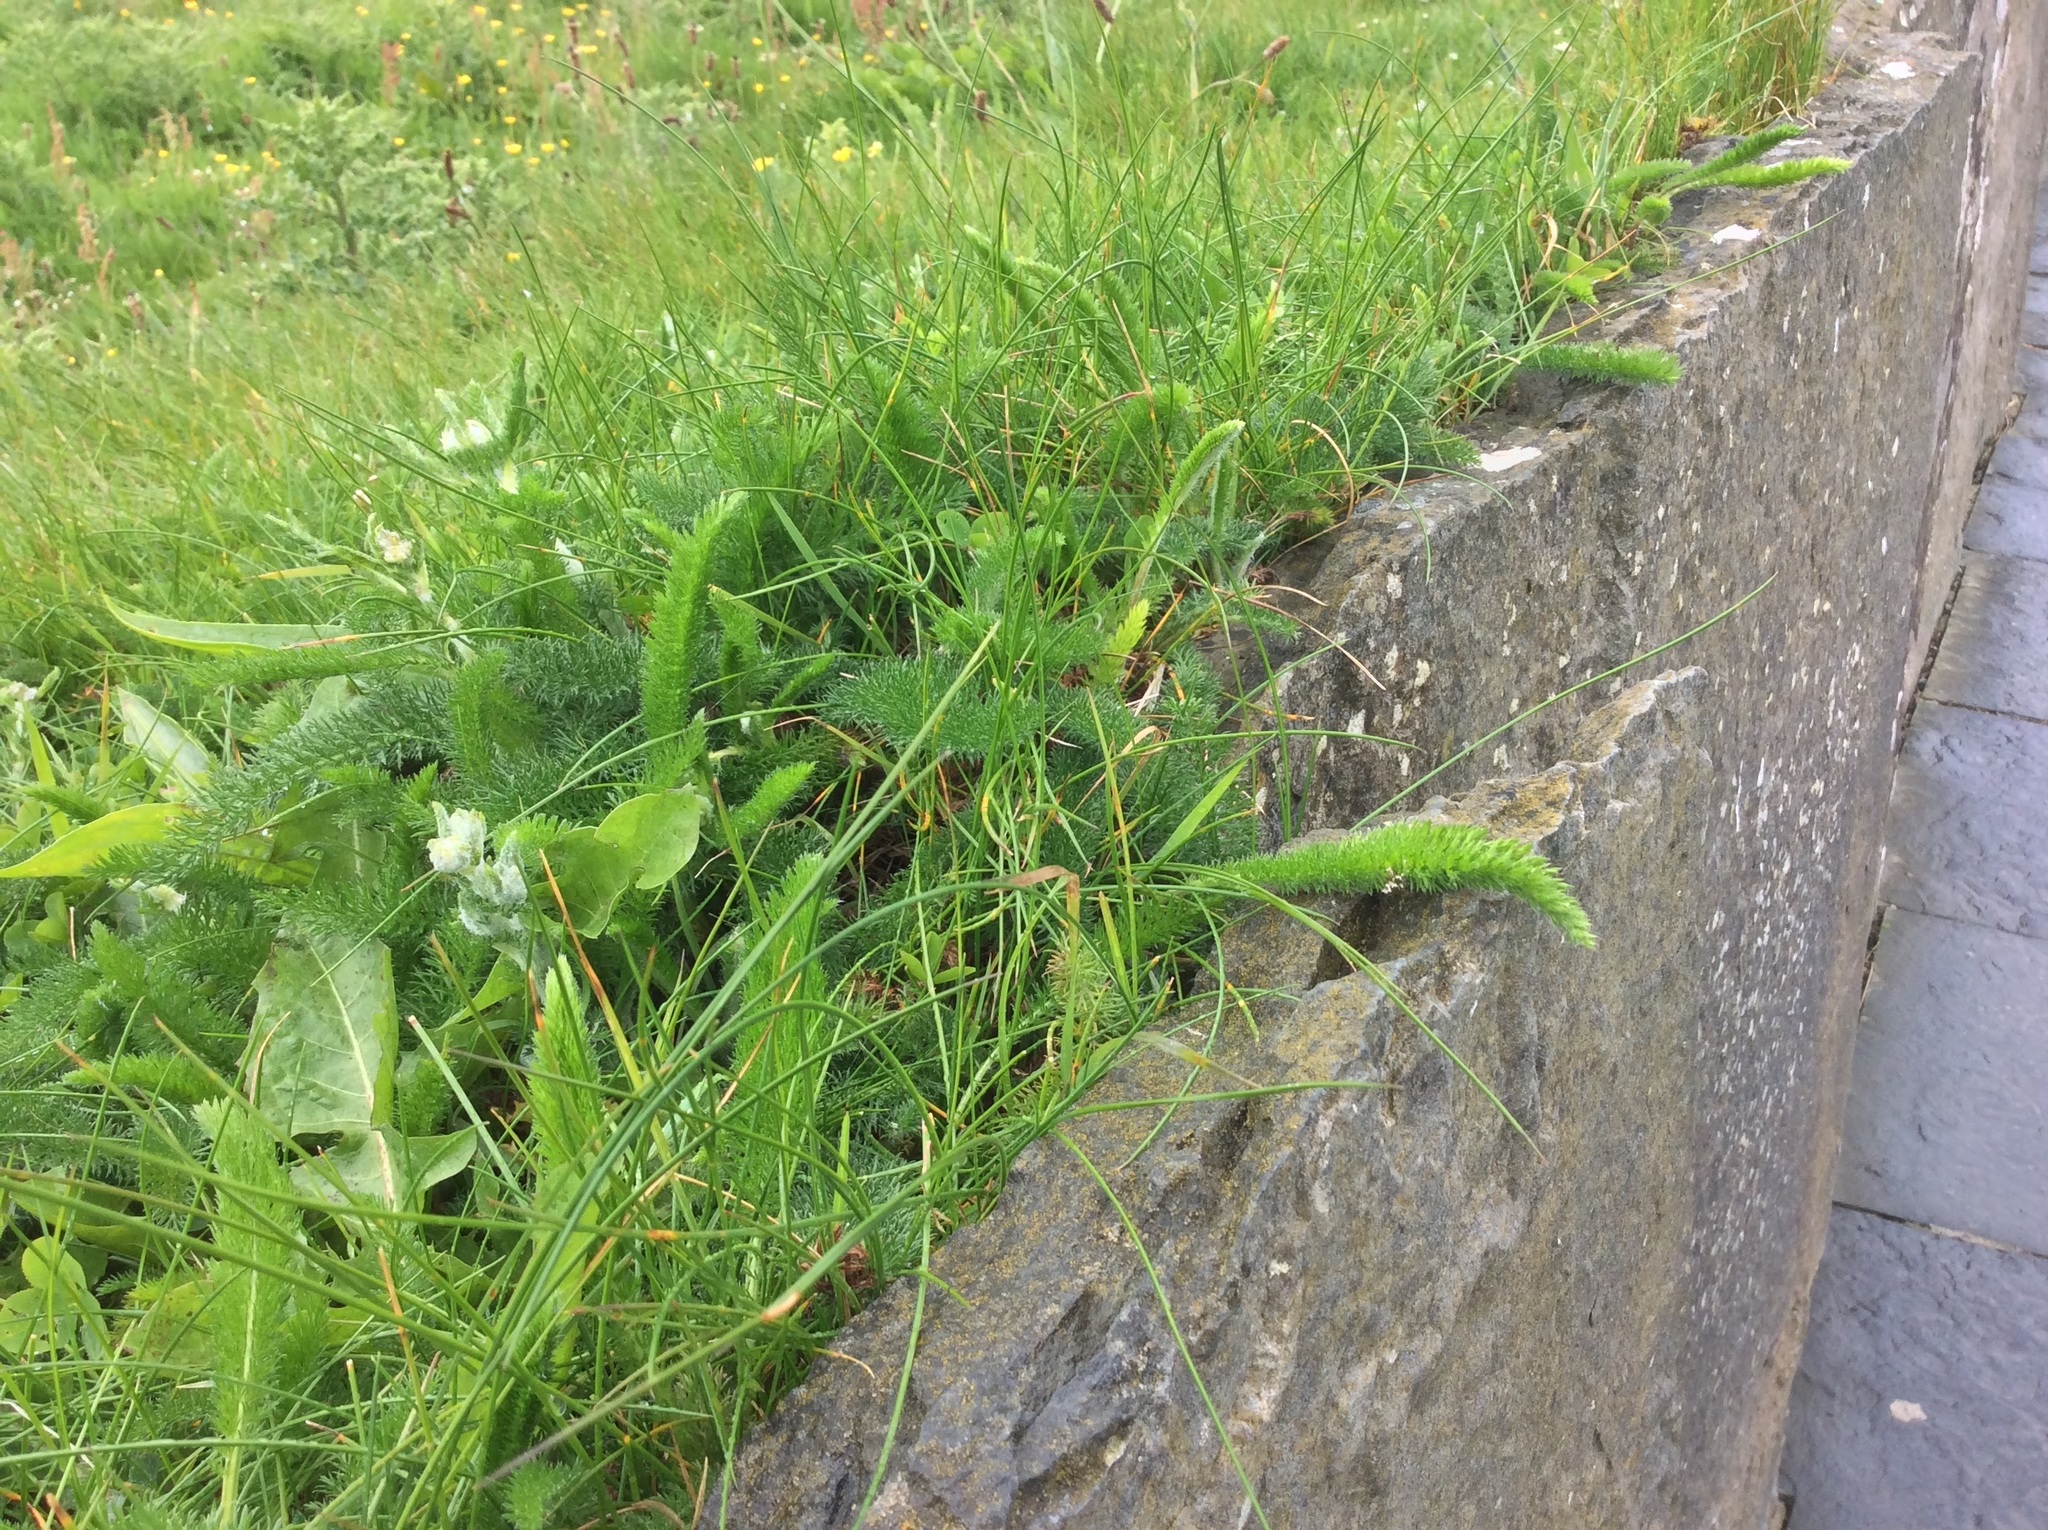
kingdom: Plantae
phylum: Tracheophyta
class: Magnoliopsida
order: Asterales
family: Asteraceae
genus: Achillea
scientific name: Achillea millefolium
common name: Yarrow
